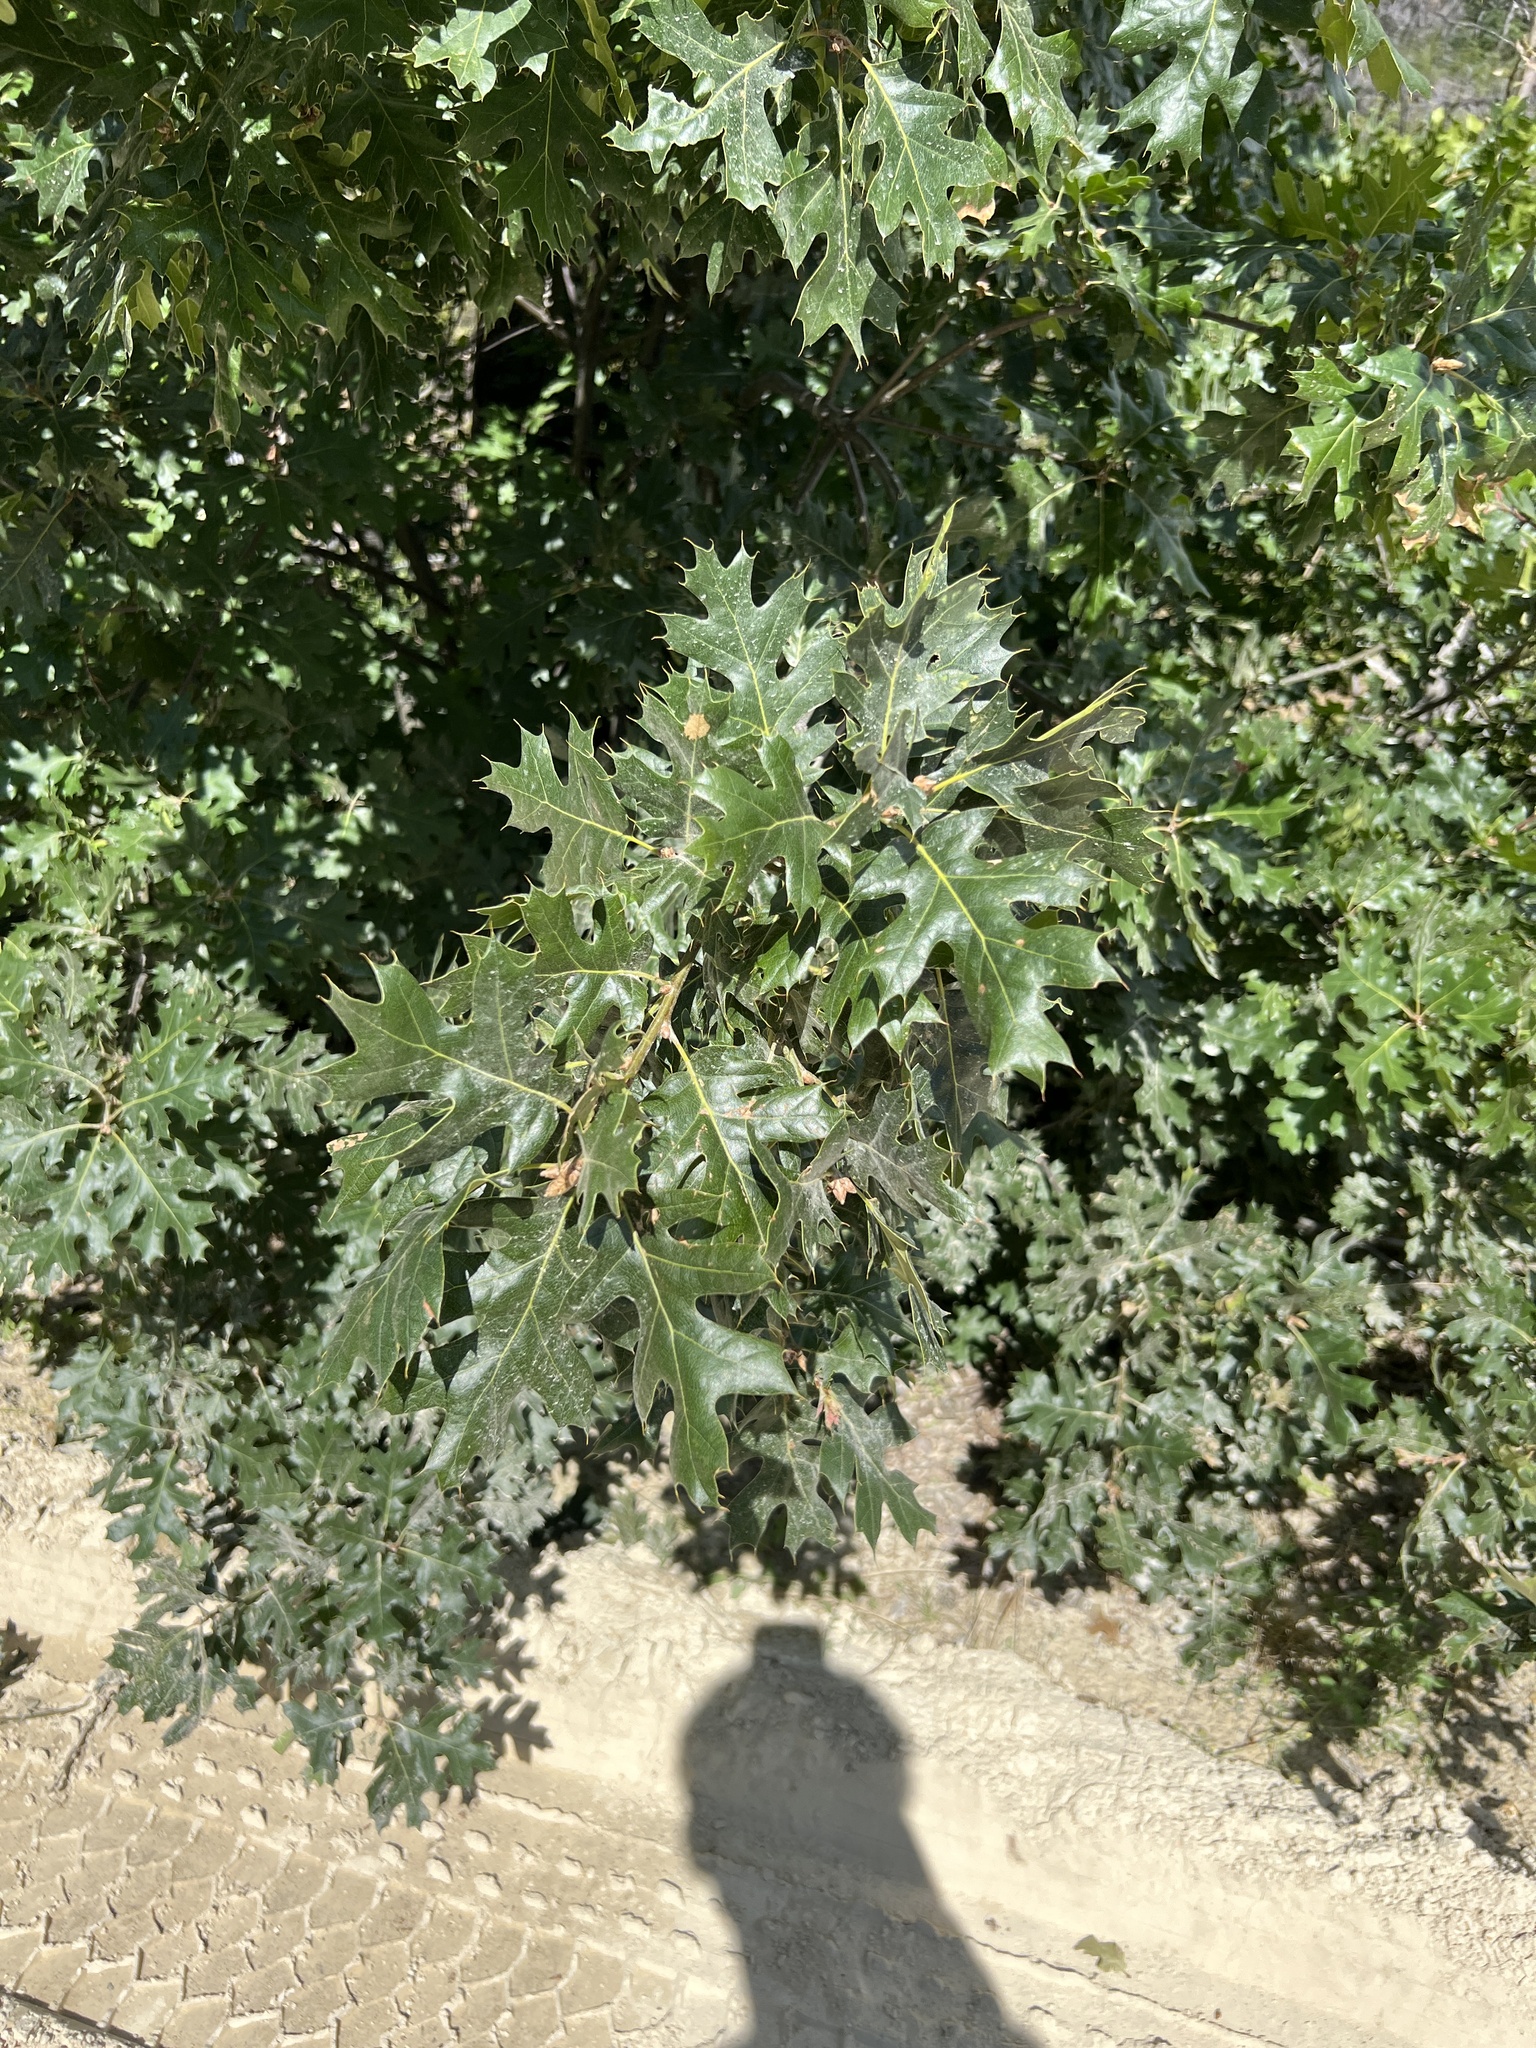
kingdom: Plantae
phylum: Tracheophyta
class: Magnoliopsida
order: Fagales
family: Fagaceae
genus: Quercus
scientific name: Quercus kelloggii
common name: California black oak
